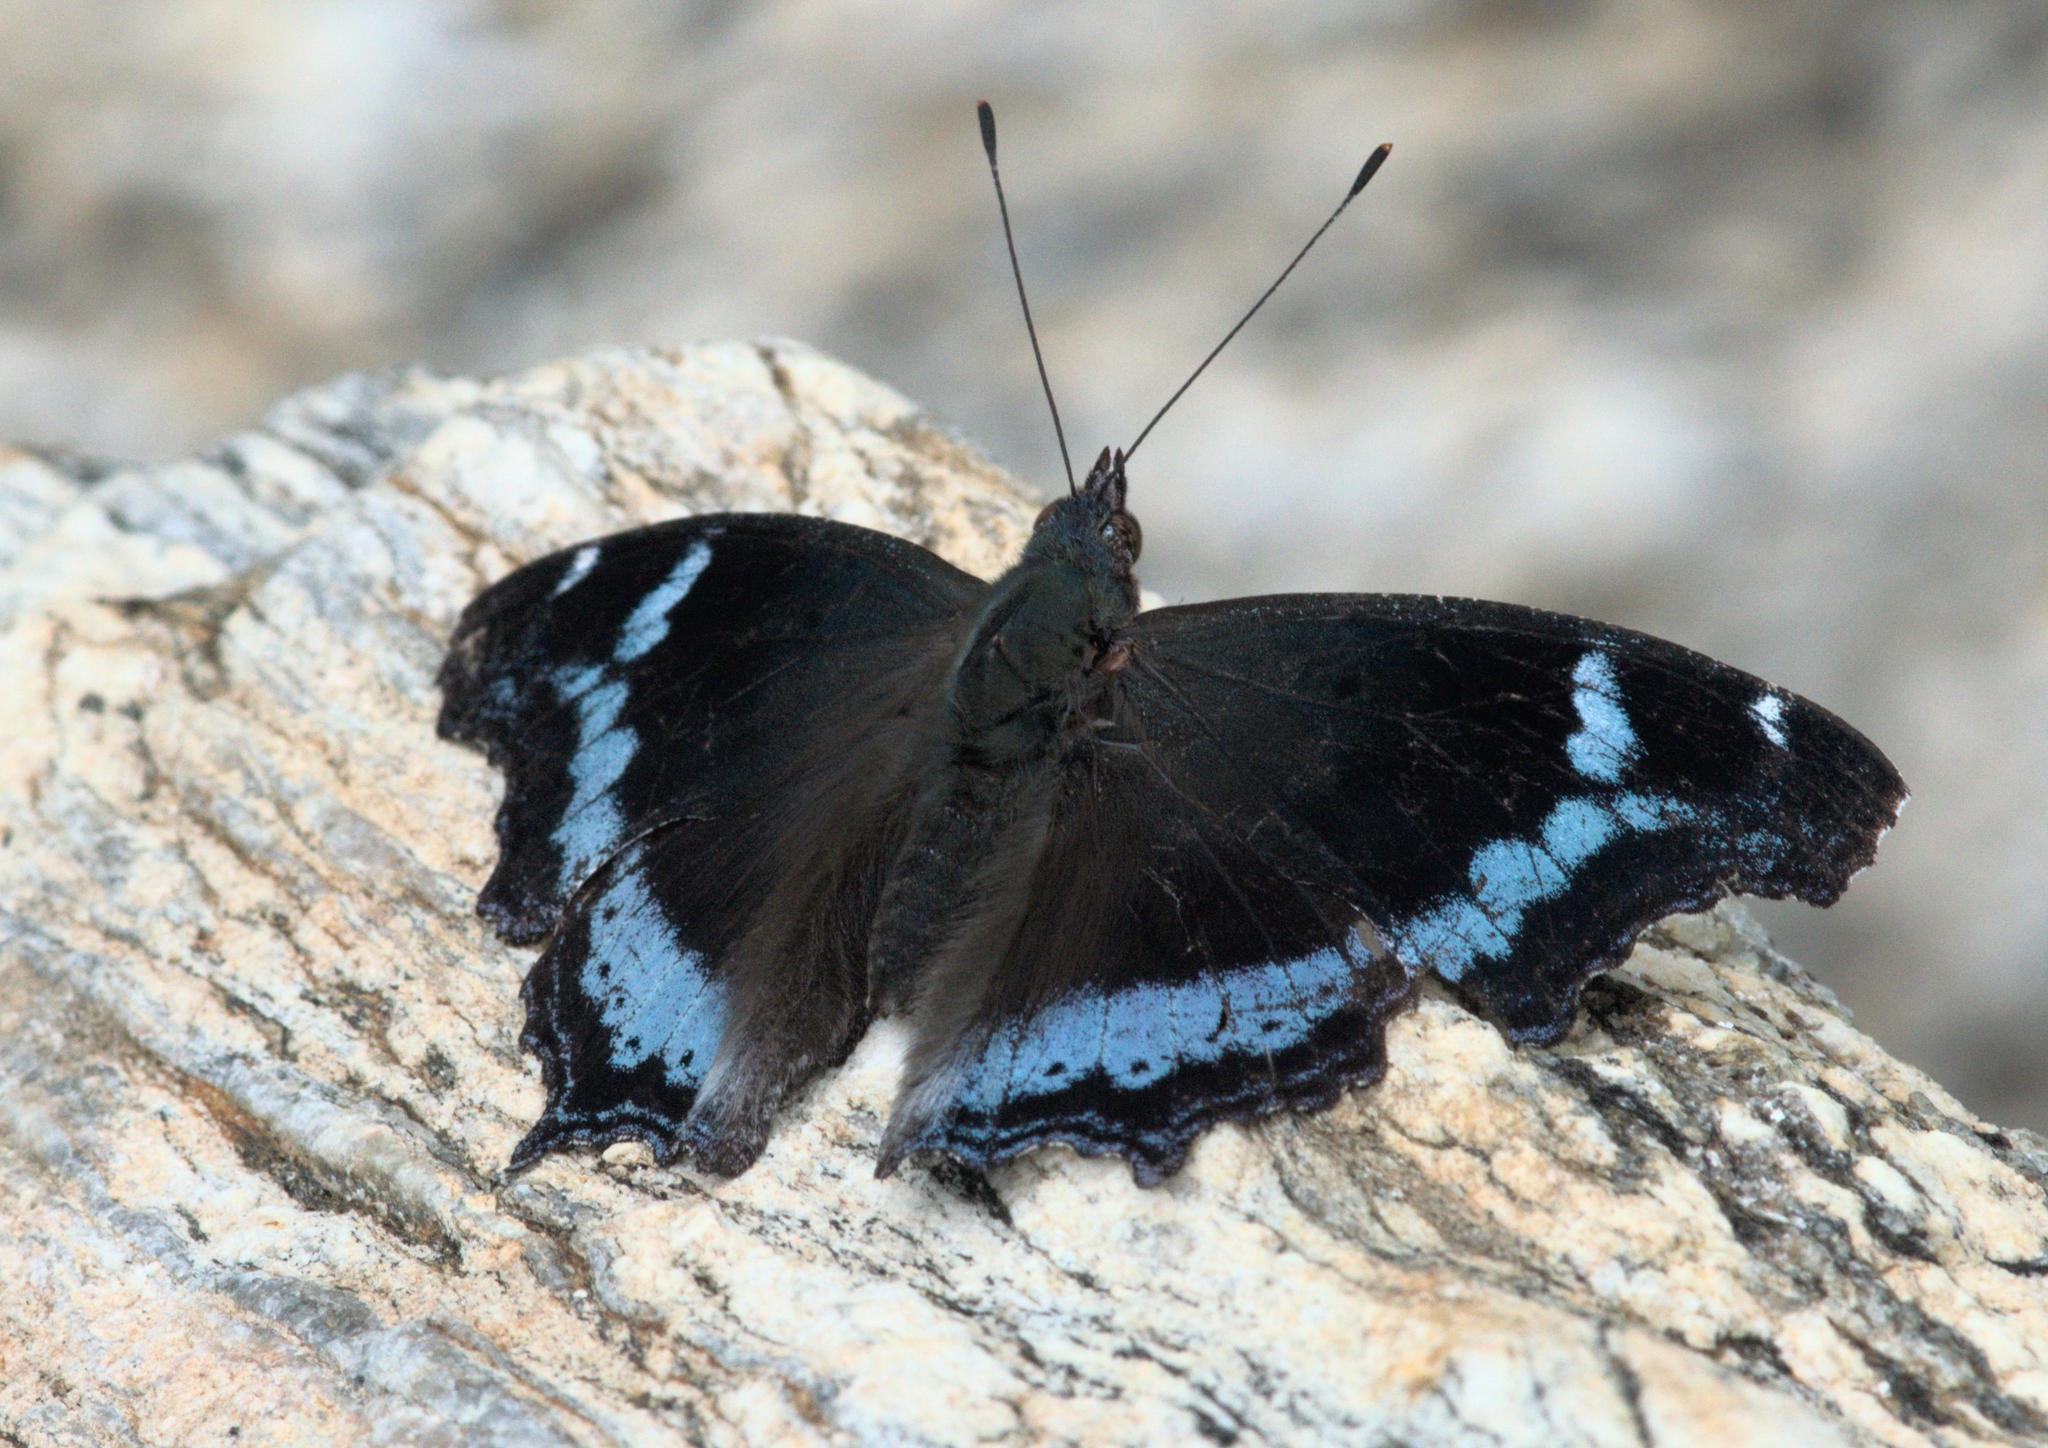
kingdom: Animalia
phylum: Arthropoda
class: Insecta
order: Lepidoptera
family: Nymphalidae
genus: Vanessa
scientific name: Vanessa Kaniska canace
